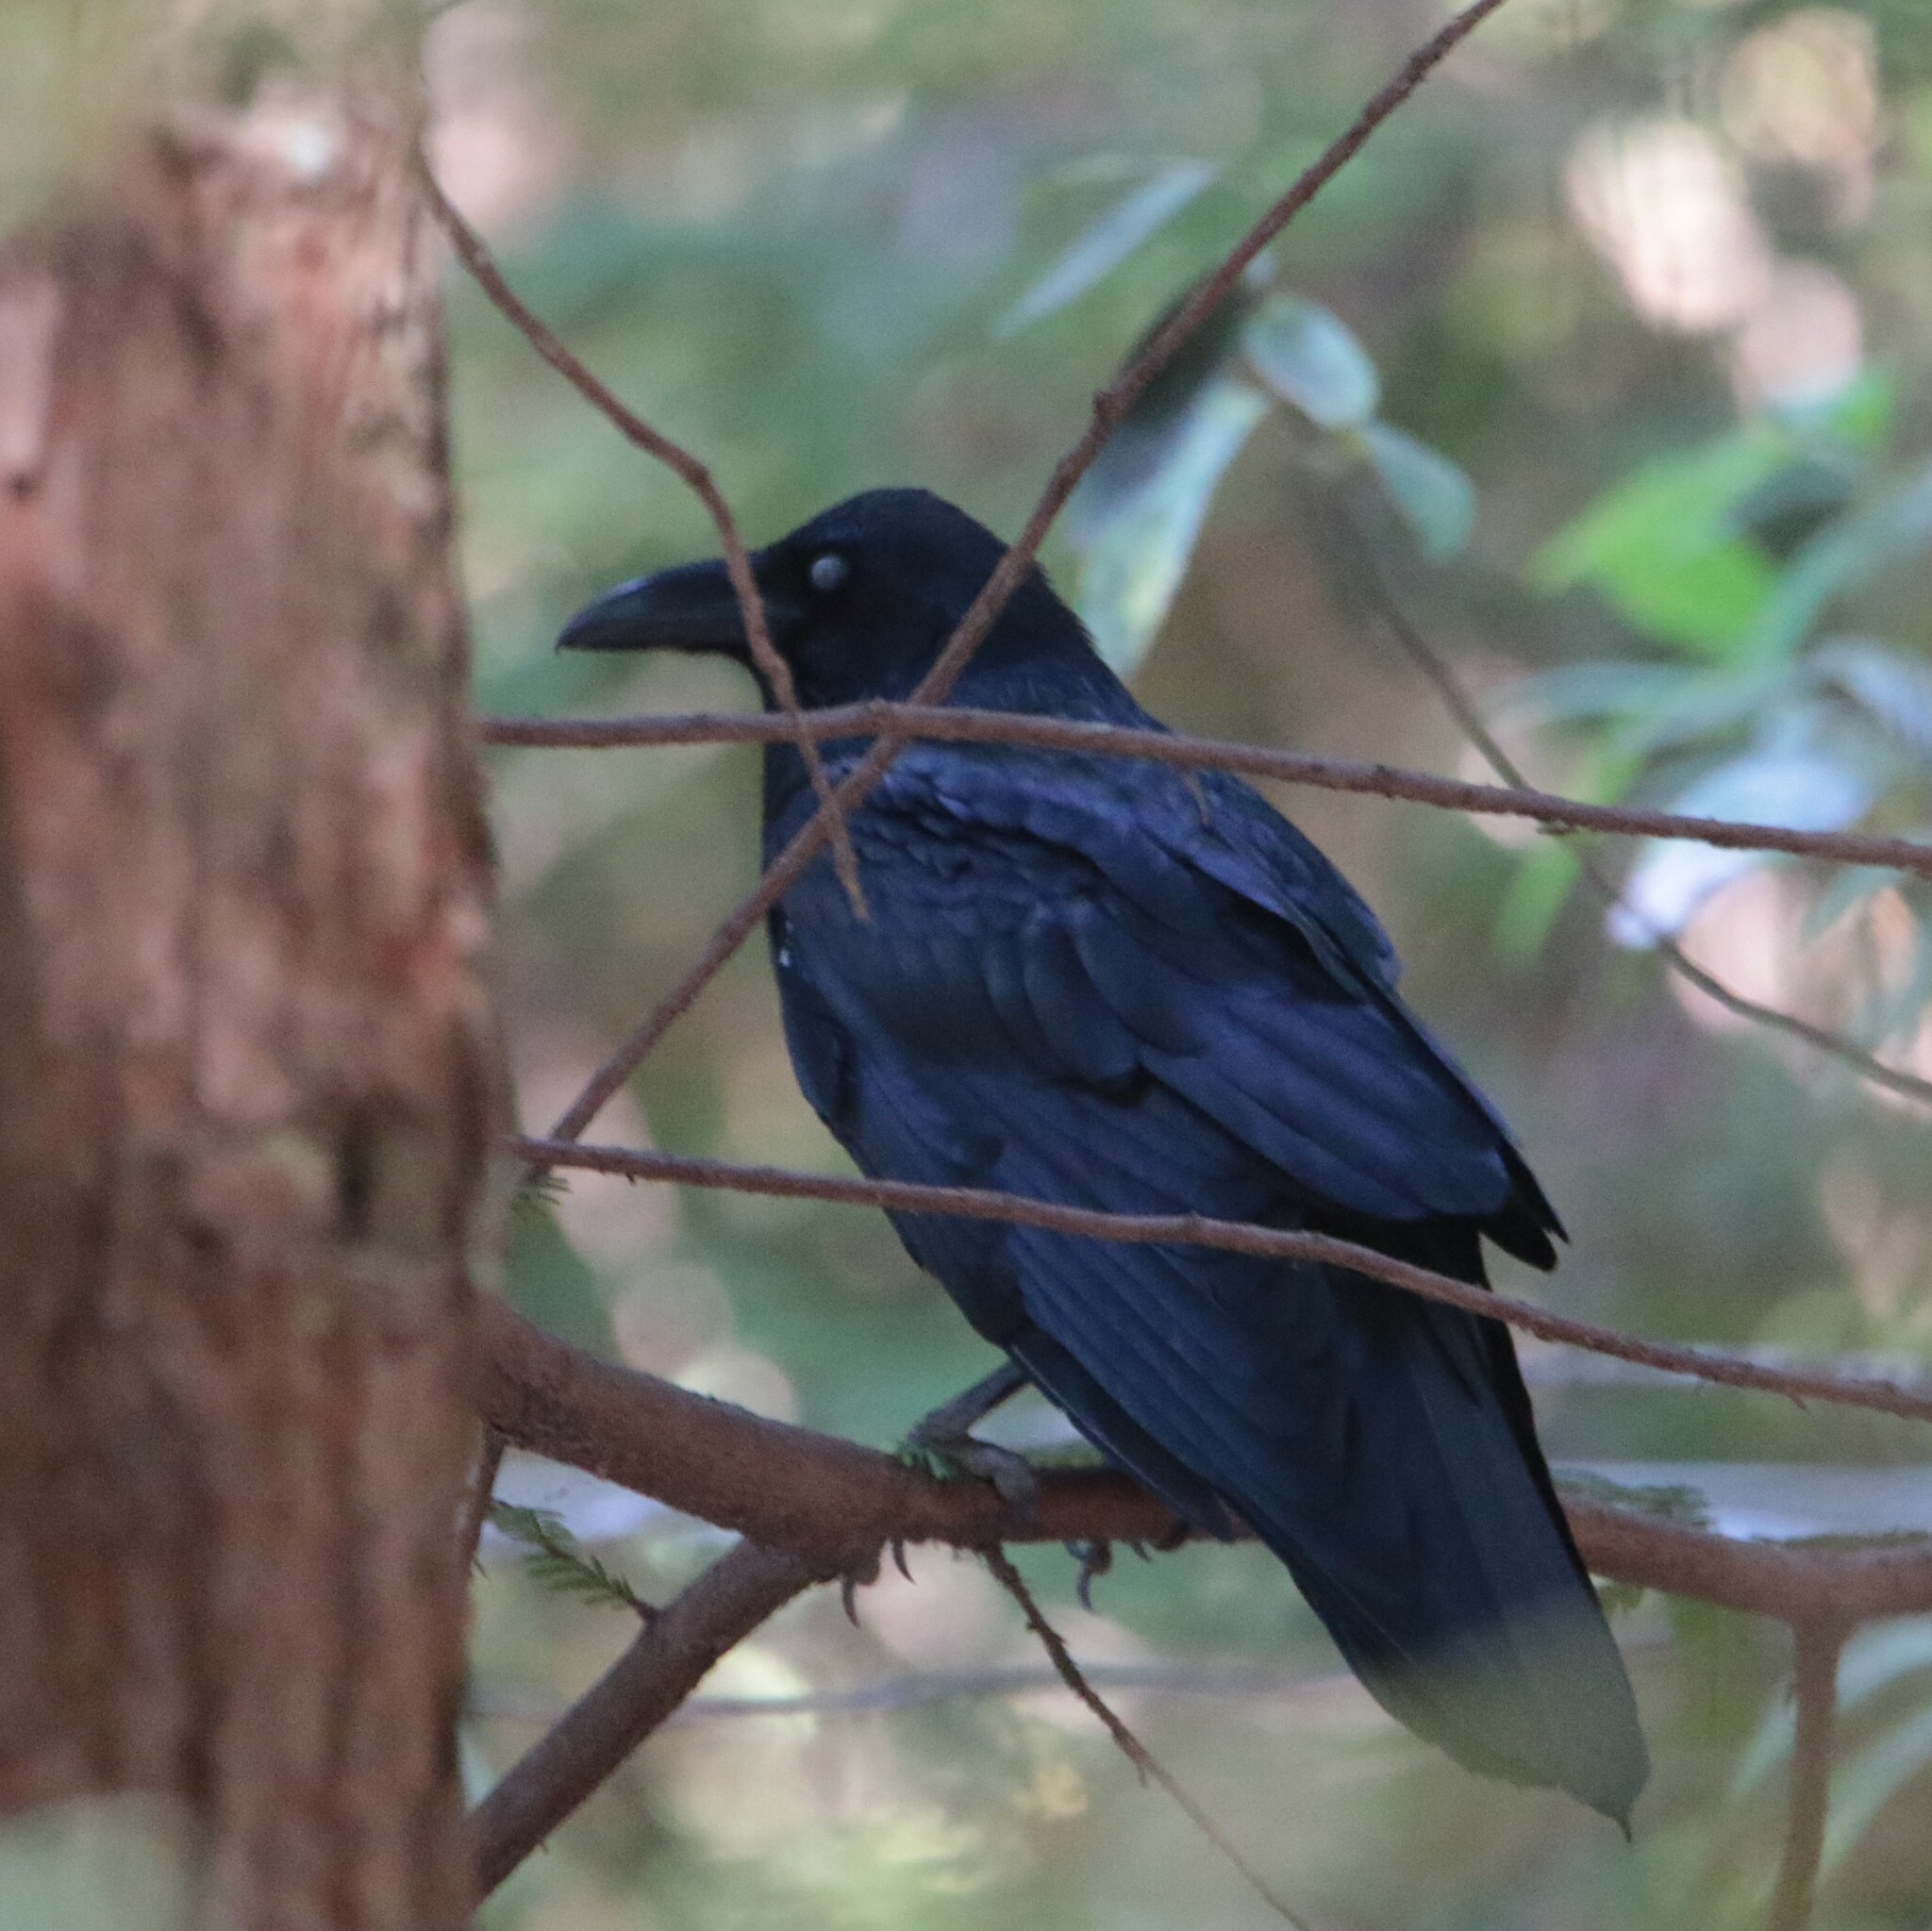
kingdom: Animalia
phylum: Chordata
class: Aves
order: Passeriformes
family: Corvidae
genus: Corvus
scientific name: Corvus corax
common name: Common raven
